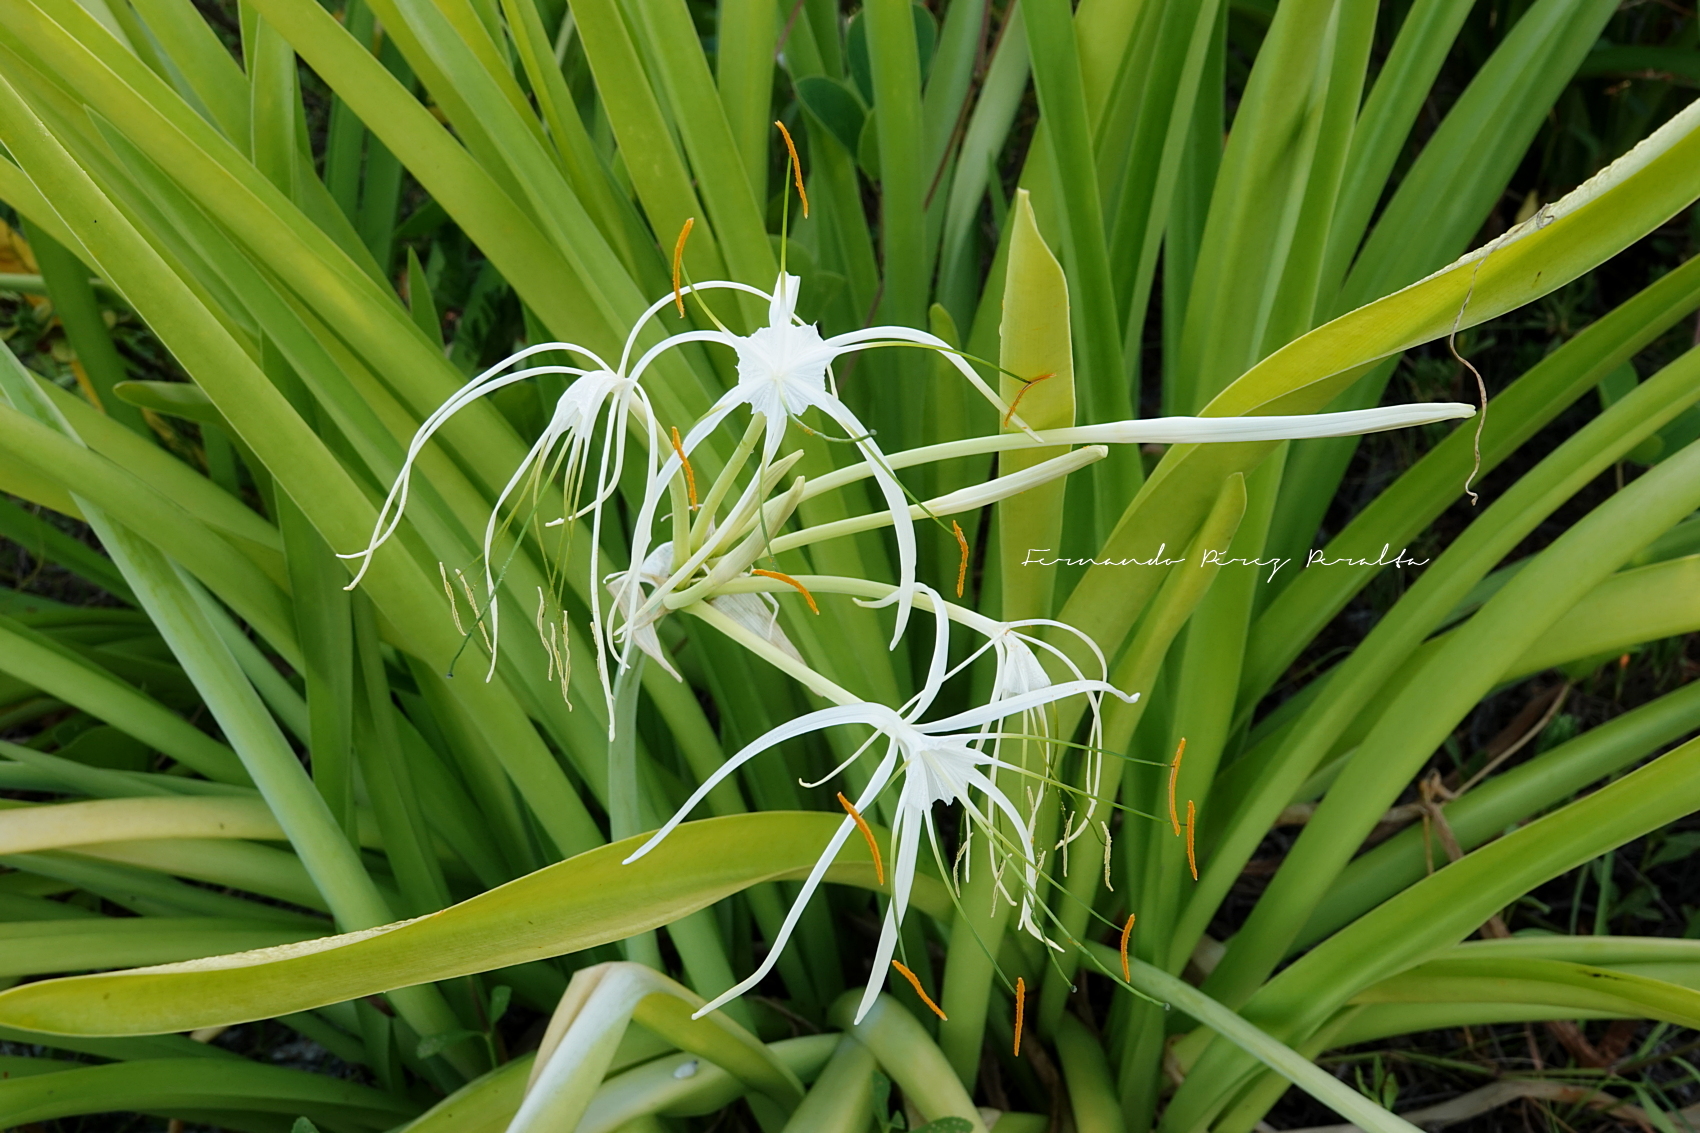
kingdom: Plantae
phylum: Tracheophyta
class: Liliopsida
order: Asparagales
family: Amaryllidaceae
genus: Hymenocallis
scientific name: Hymenocallis littoralis
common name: Beach spiderlily
